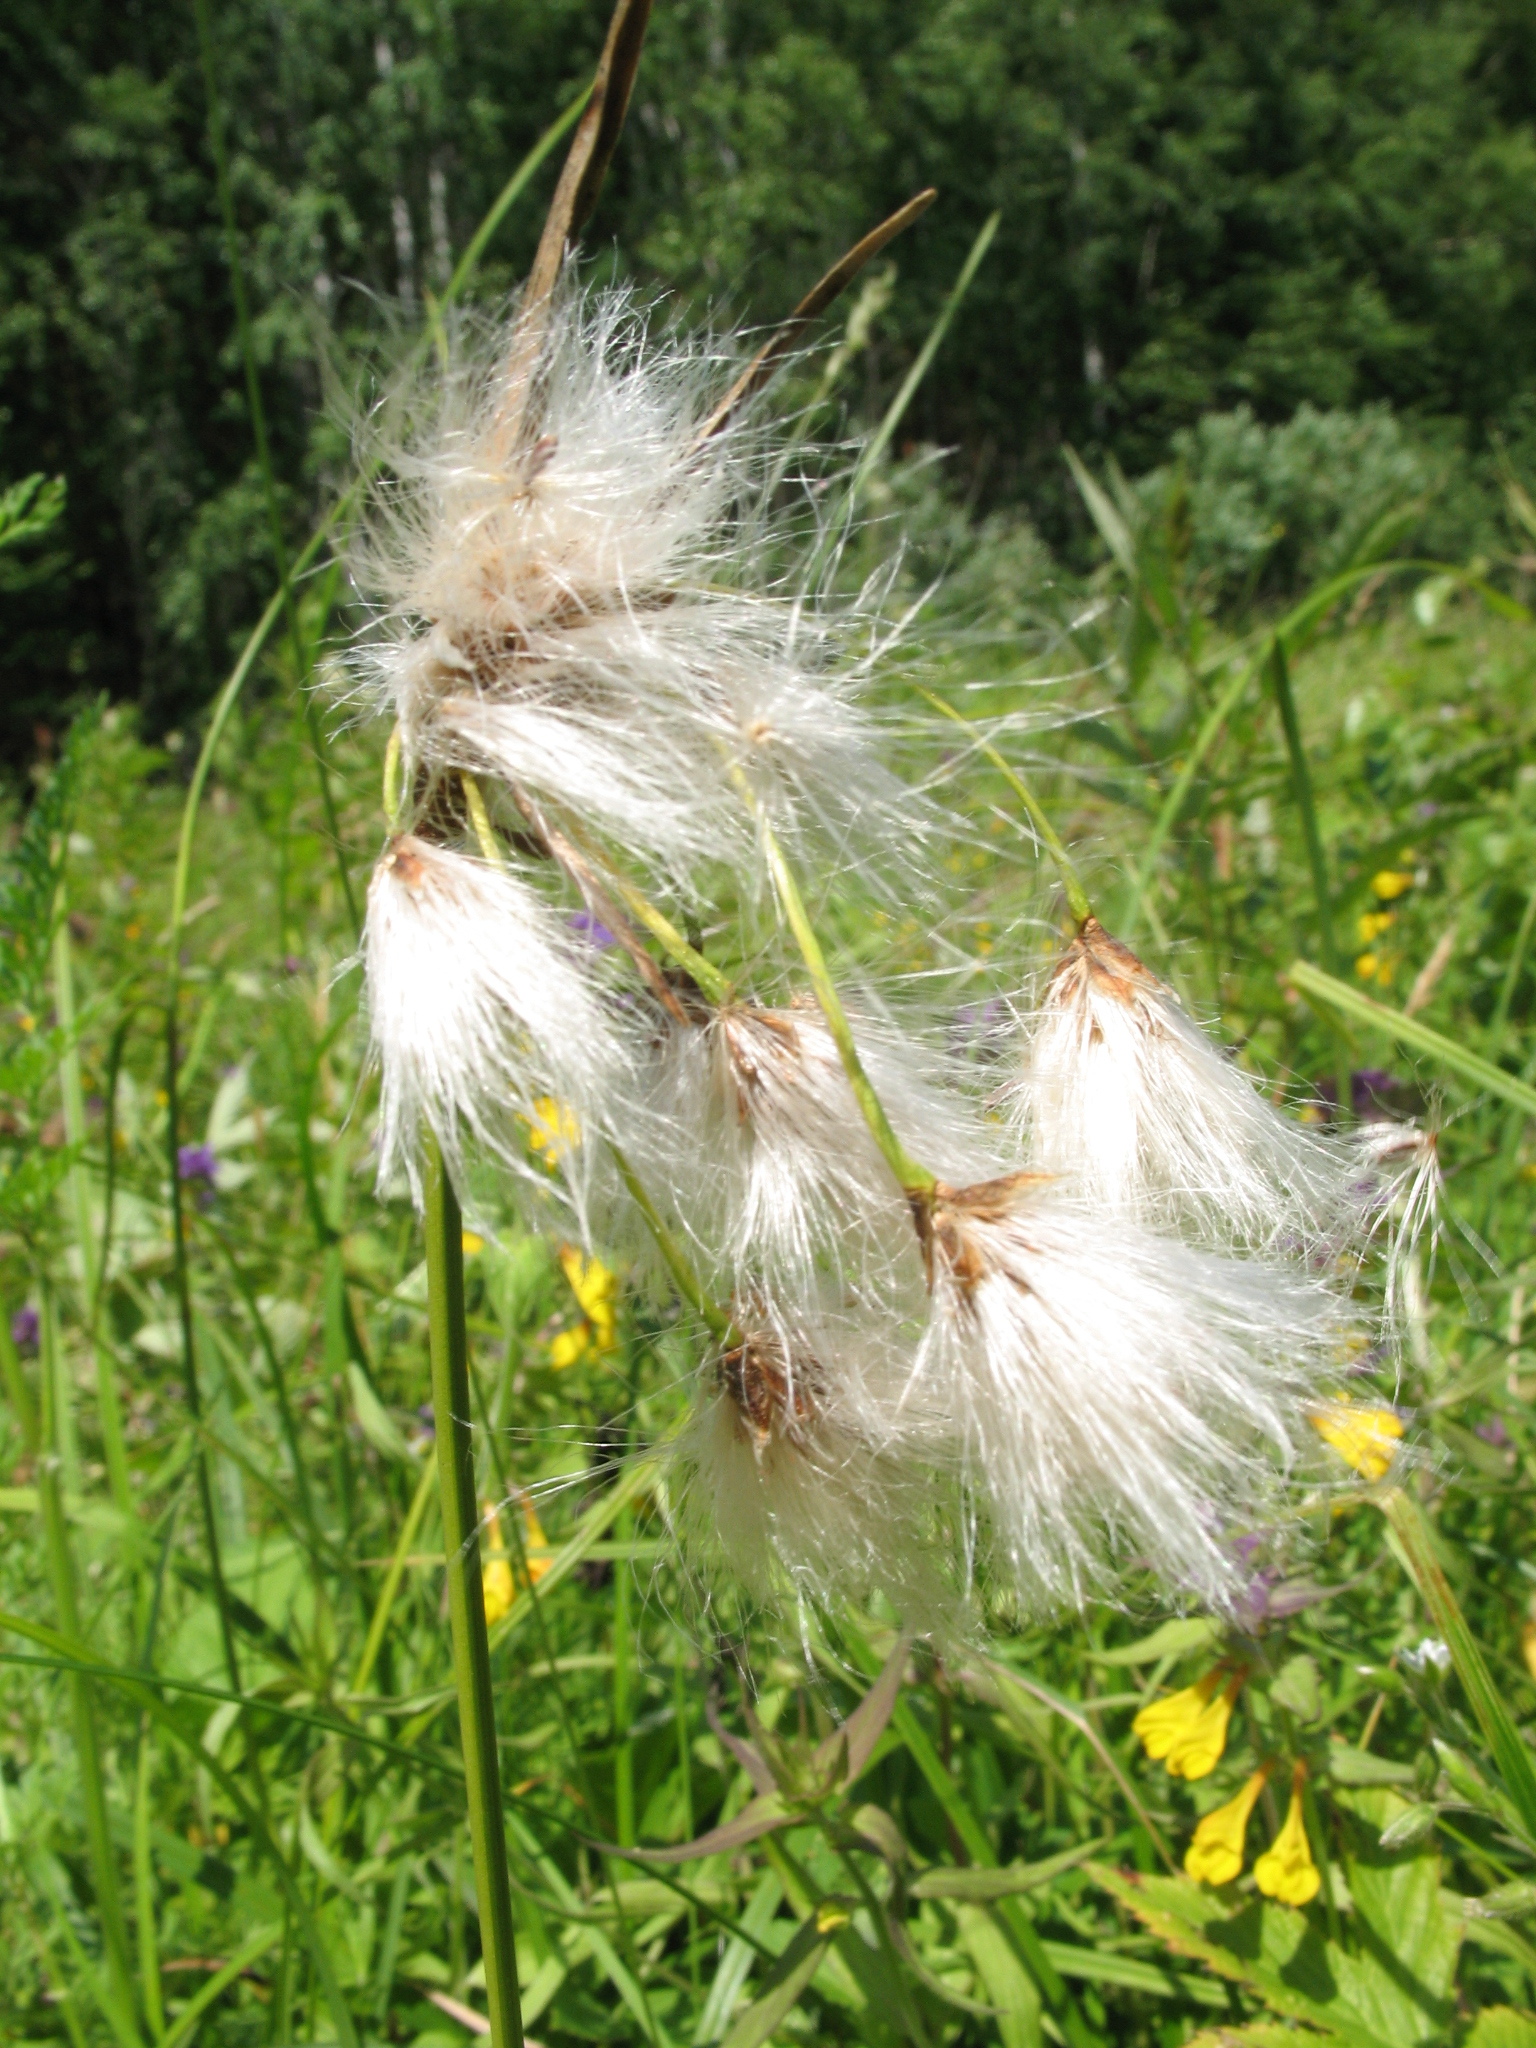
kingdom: Plantae
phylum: Tracheophyta
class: Liliopsida
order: Poales
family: Cyperaceae
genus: Eriophorum
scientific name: Eriophorum latifolium
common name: Broad-leaved cottongrass
